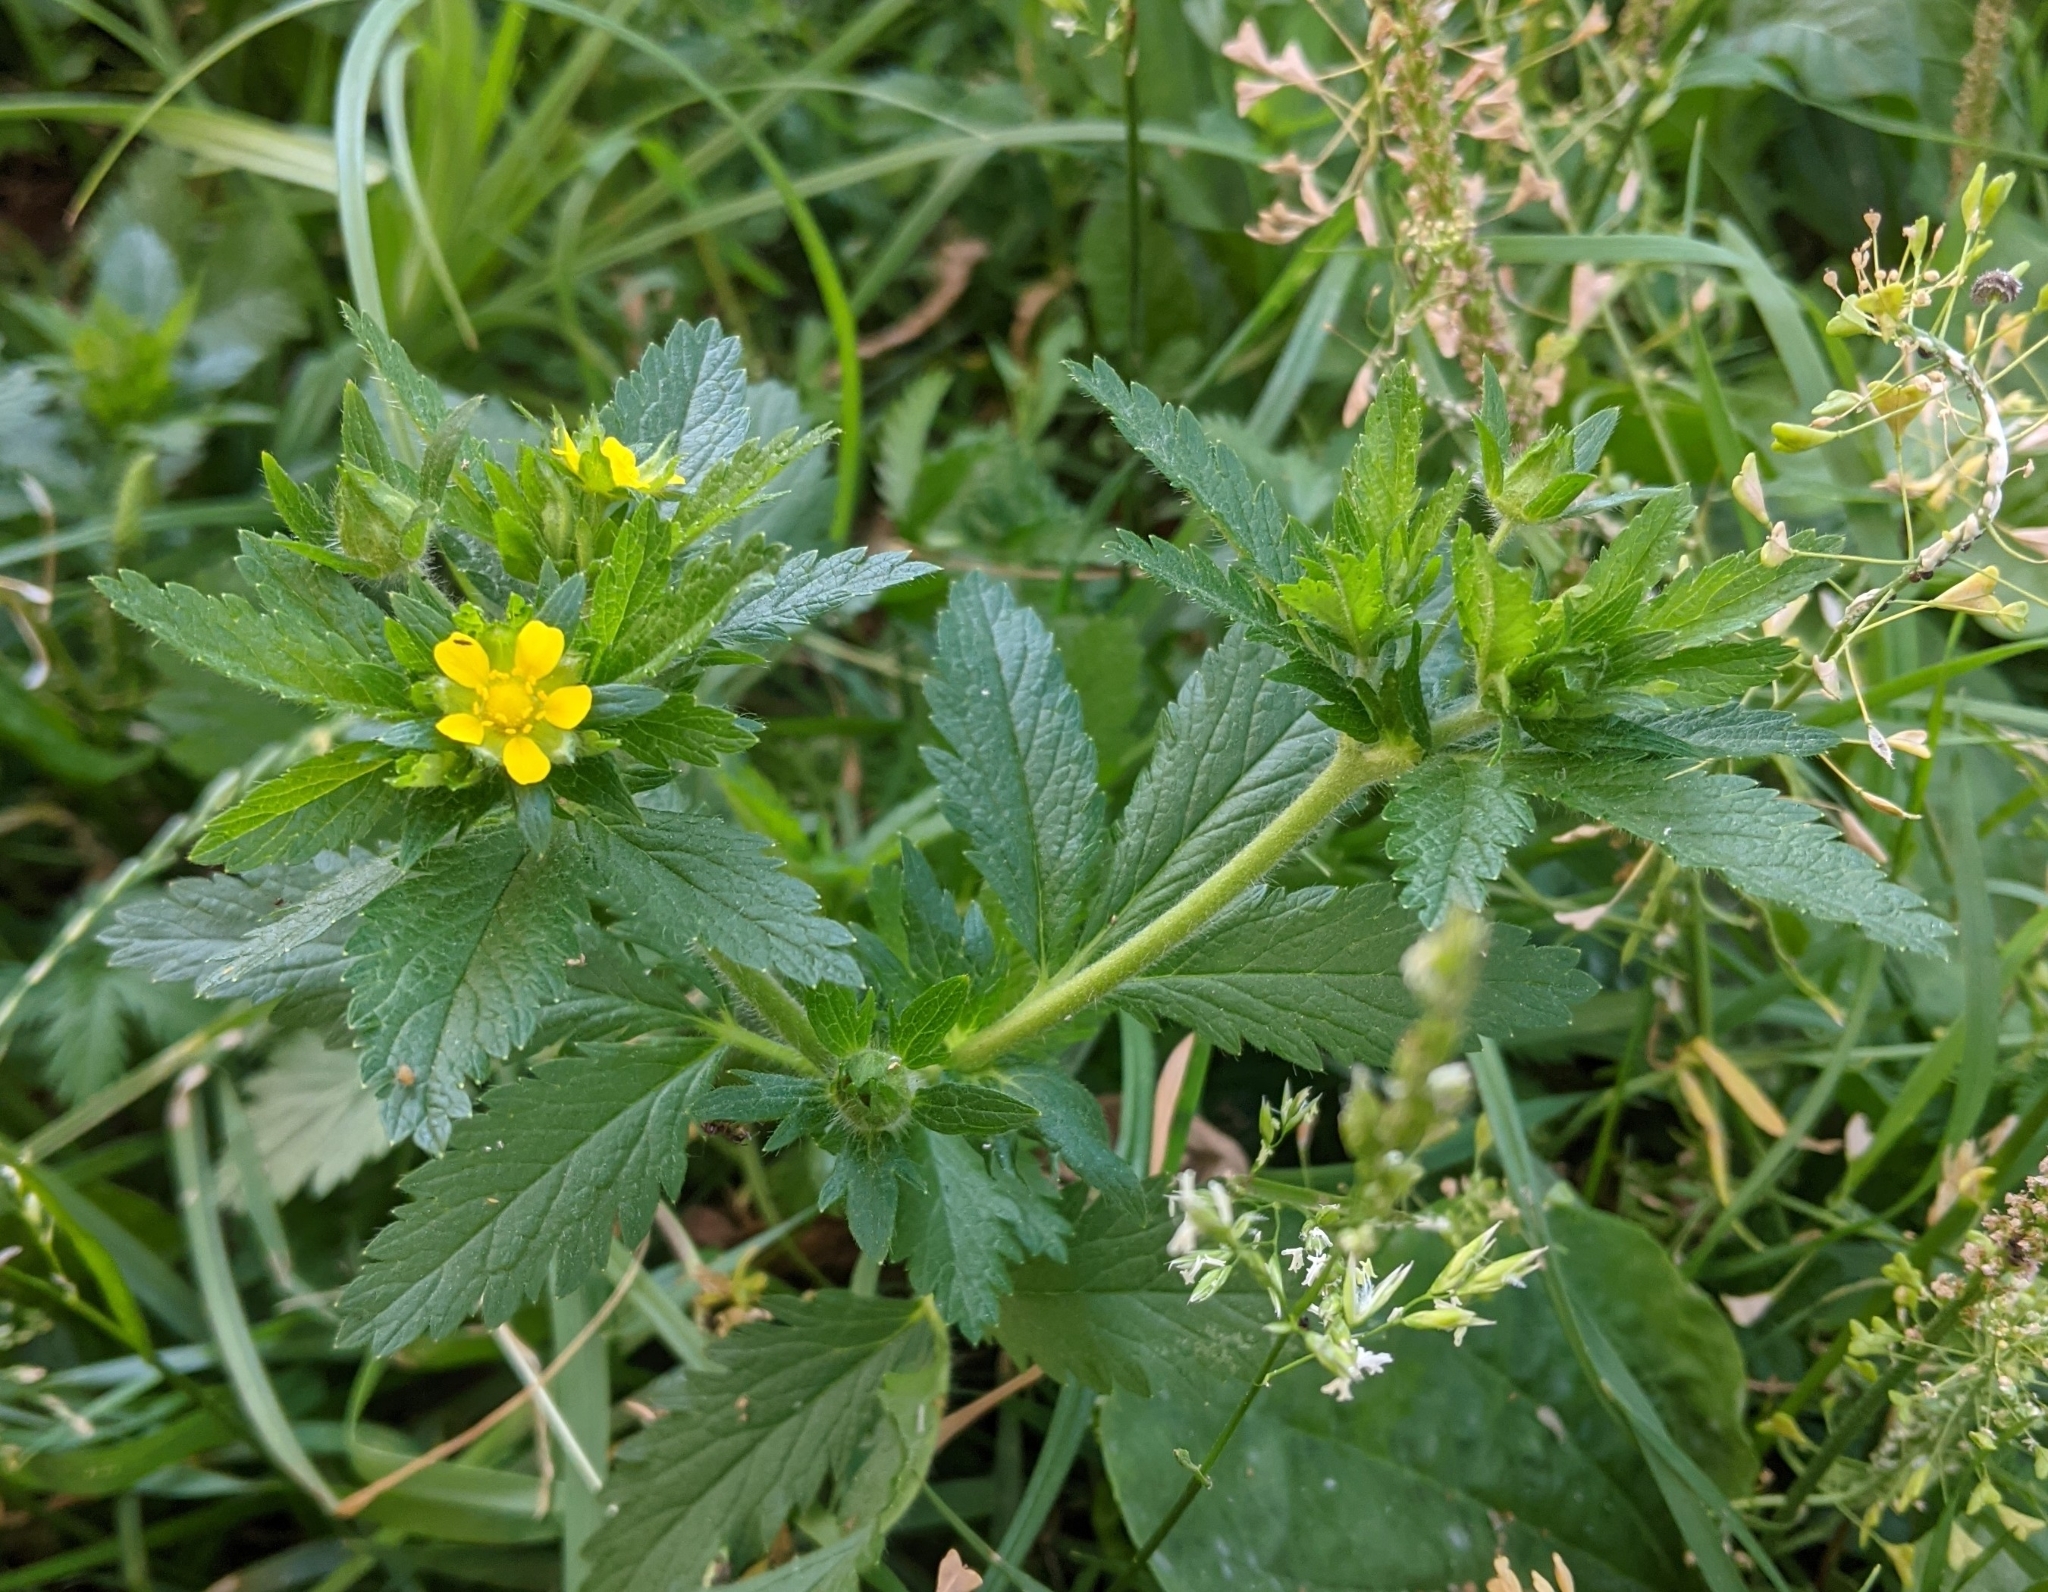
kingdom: Plantae
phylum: Tracheophyta
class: Magnoliopsida
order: Rosales
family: Rosaceae
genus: Potentilla
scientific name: Potentilla norvegica
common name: Ternate-leaved cinquefoil
